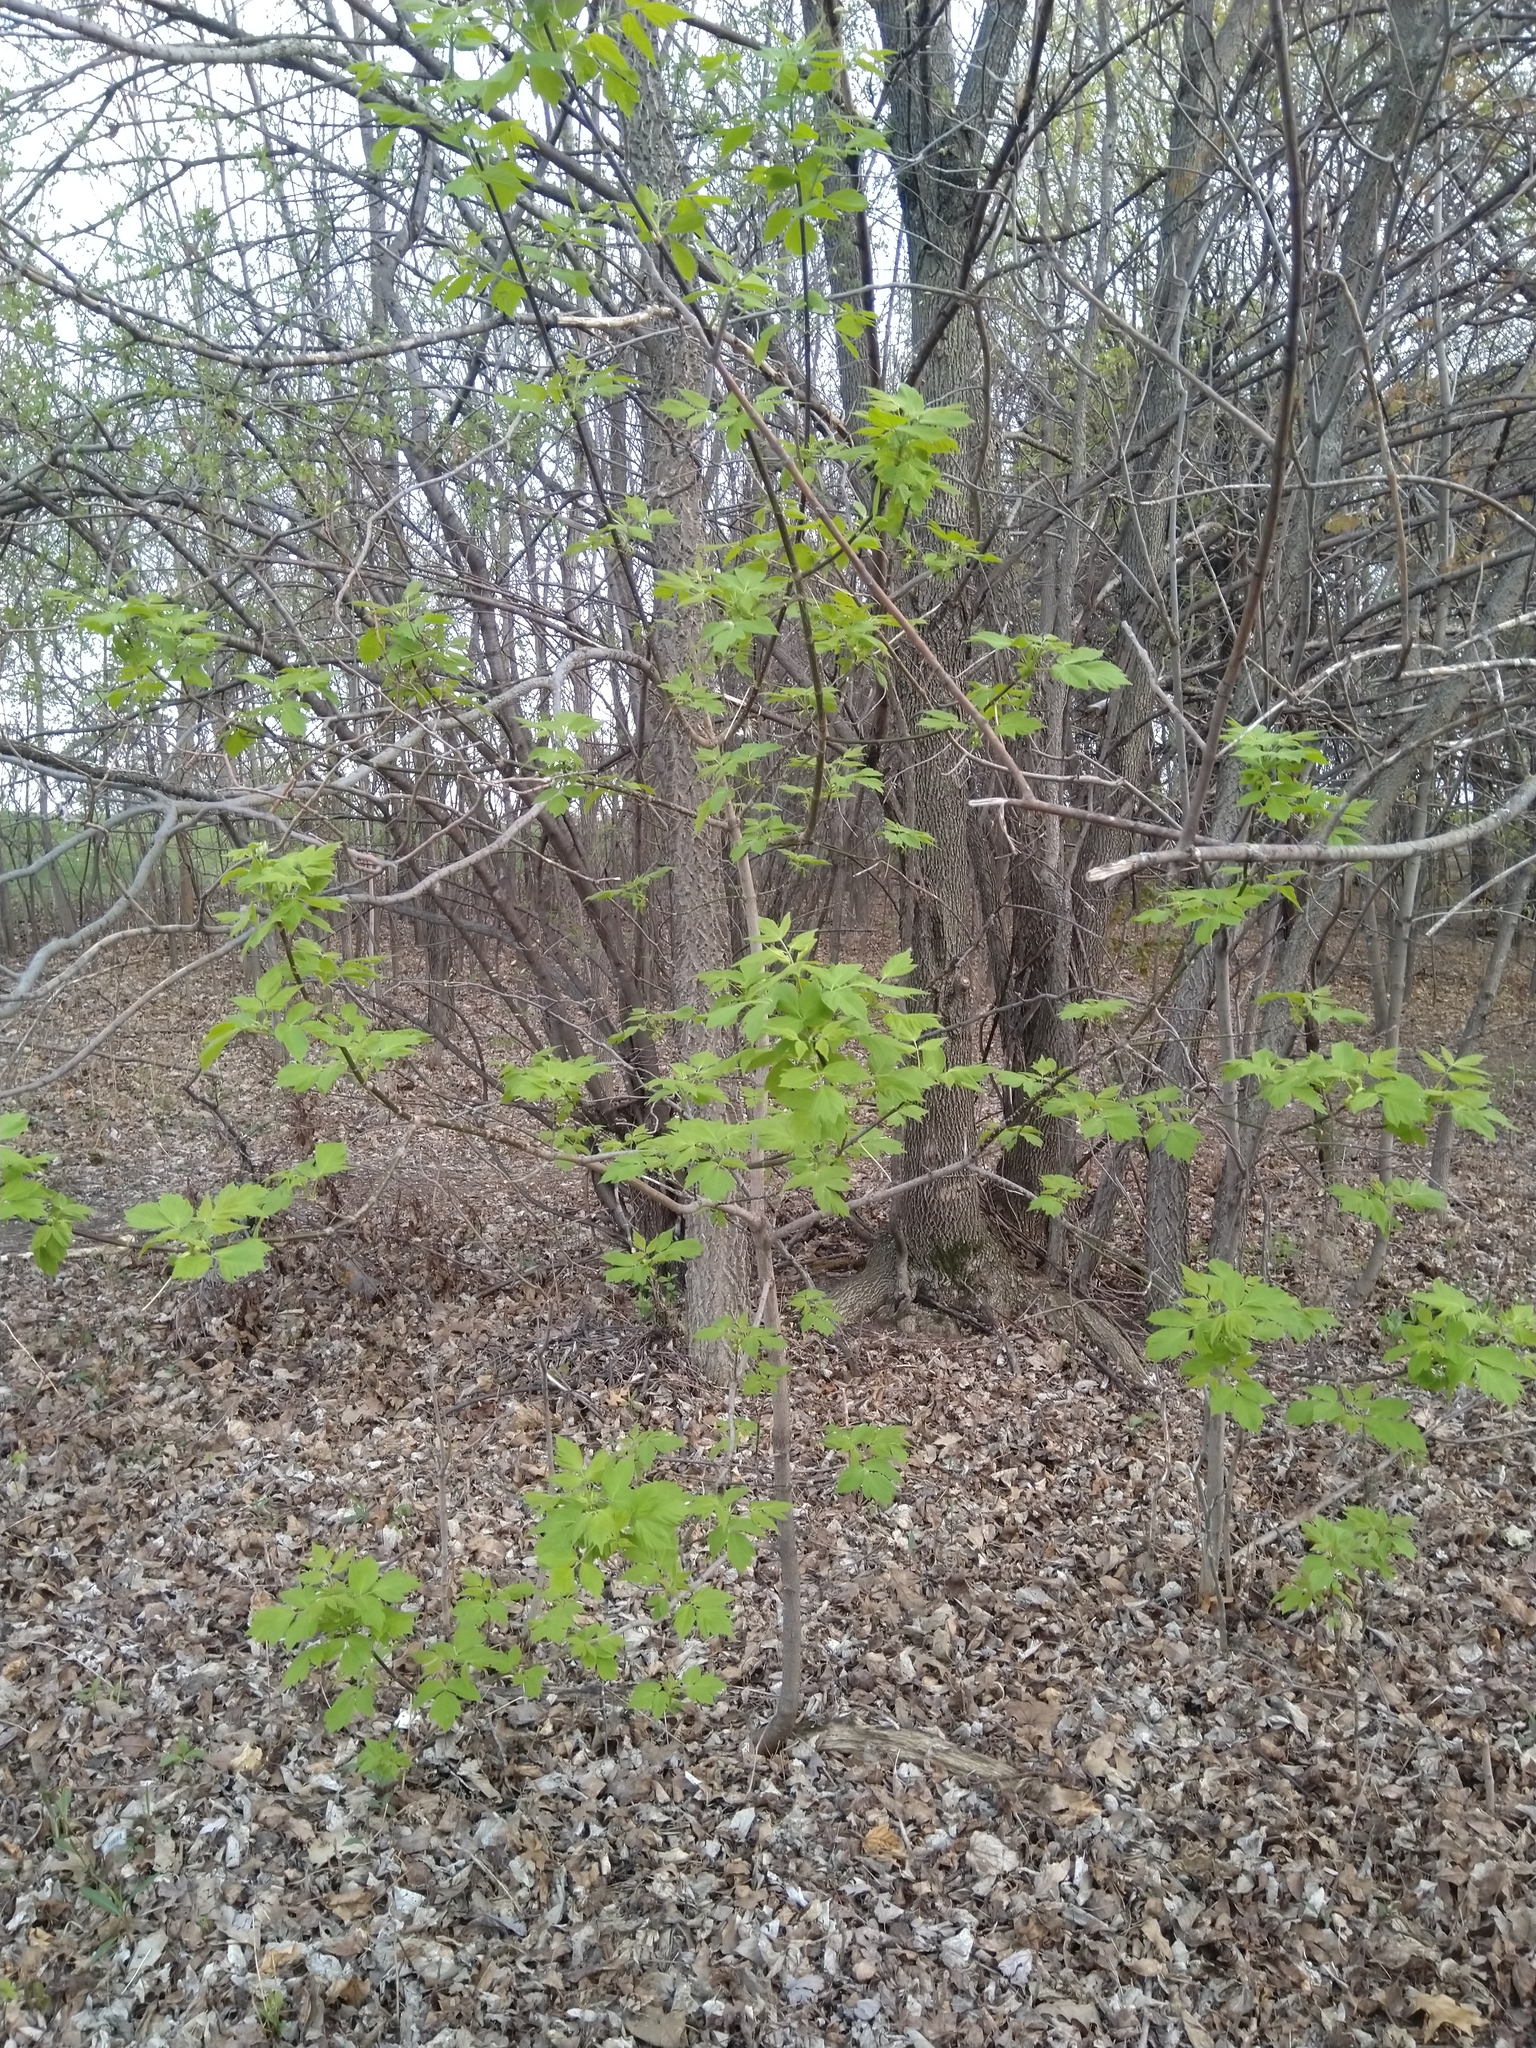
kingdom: Plantae
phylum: Tracheophyta
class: Magnoliopsida
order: Sapindales
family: Sapindaceae
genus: Acer
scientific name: Acer negundo
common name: Ashleaf maple
